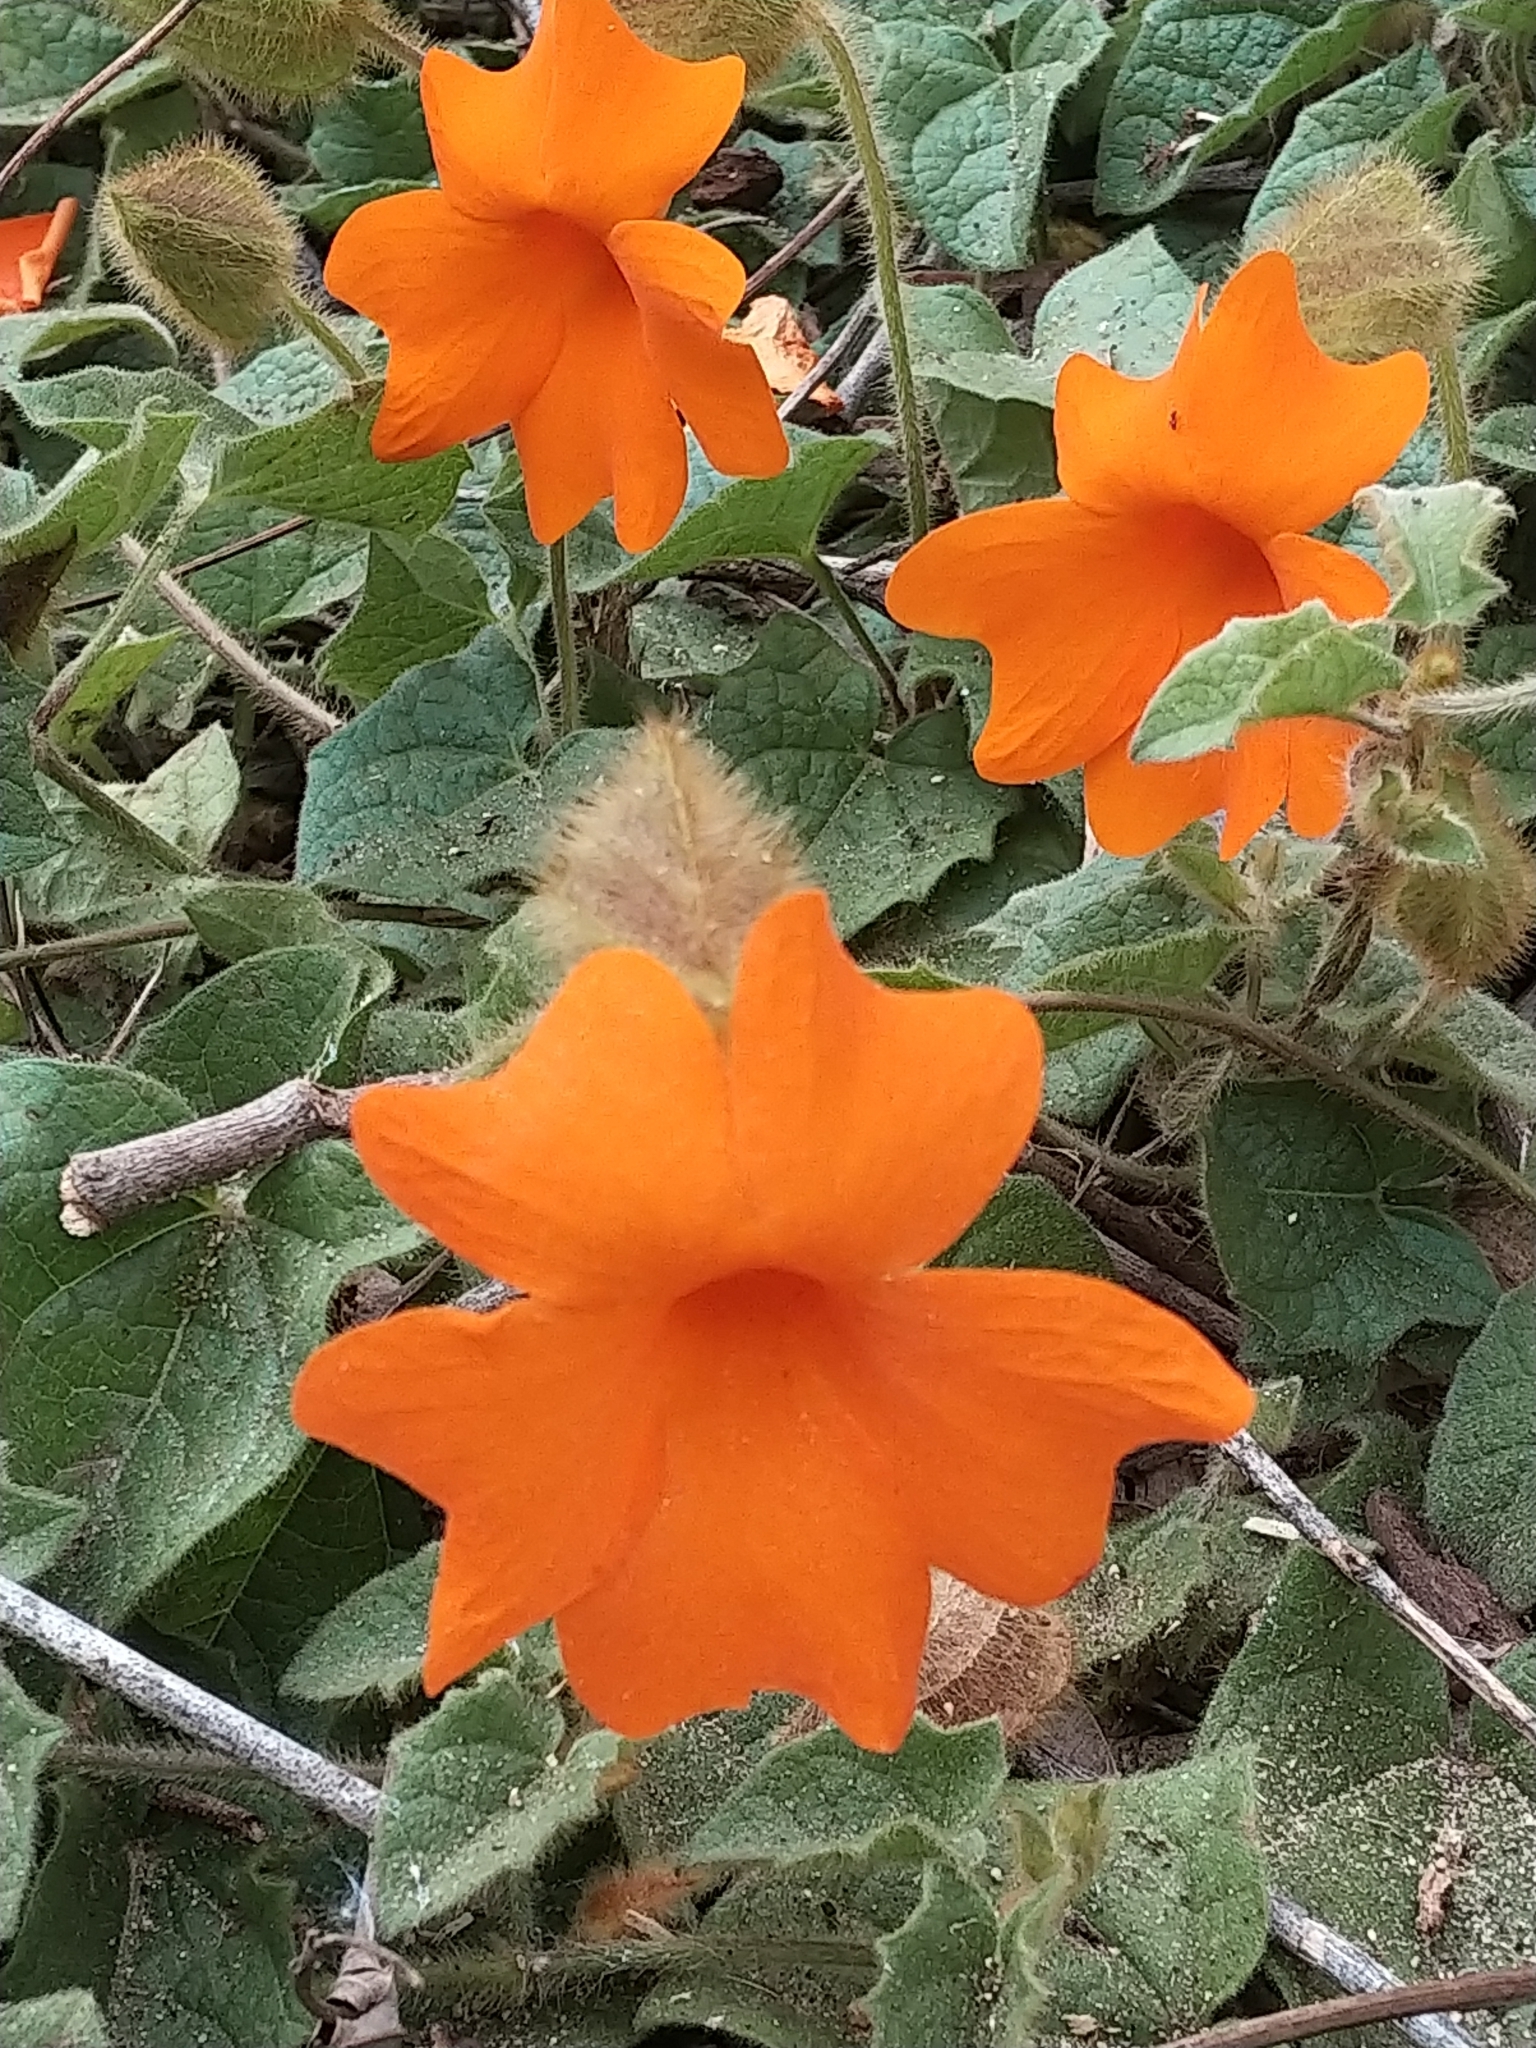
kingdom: Plantae
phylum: Tracheophyta
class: Magnoliopsida
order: Lamiales
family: Acanthaceae
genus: Thunbergia
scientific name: Thunbergia gregorii
